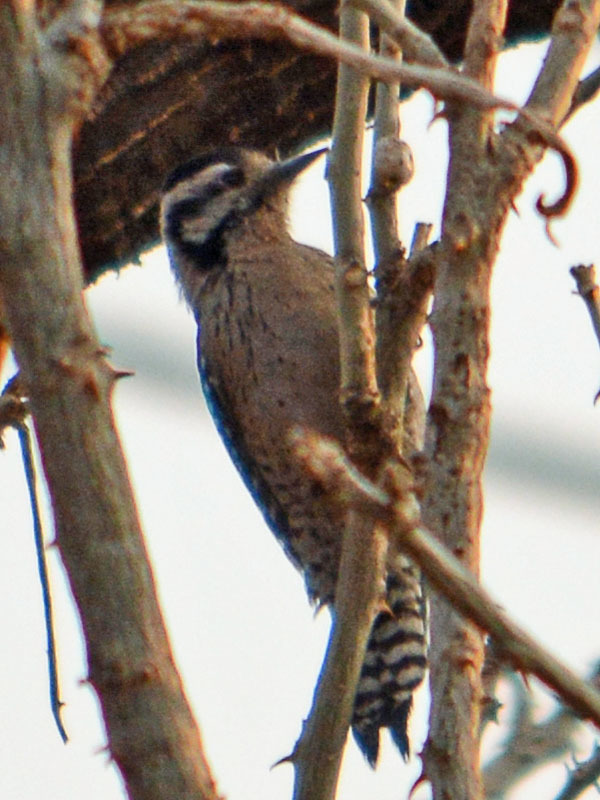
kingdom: Animalia
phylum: Chordata
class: Aves
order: Piciformes
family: Picidae
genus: Dryobates
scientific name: Dryobates scalaris
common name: Ladder-backed woodpecker
